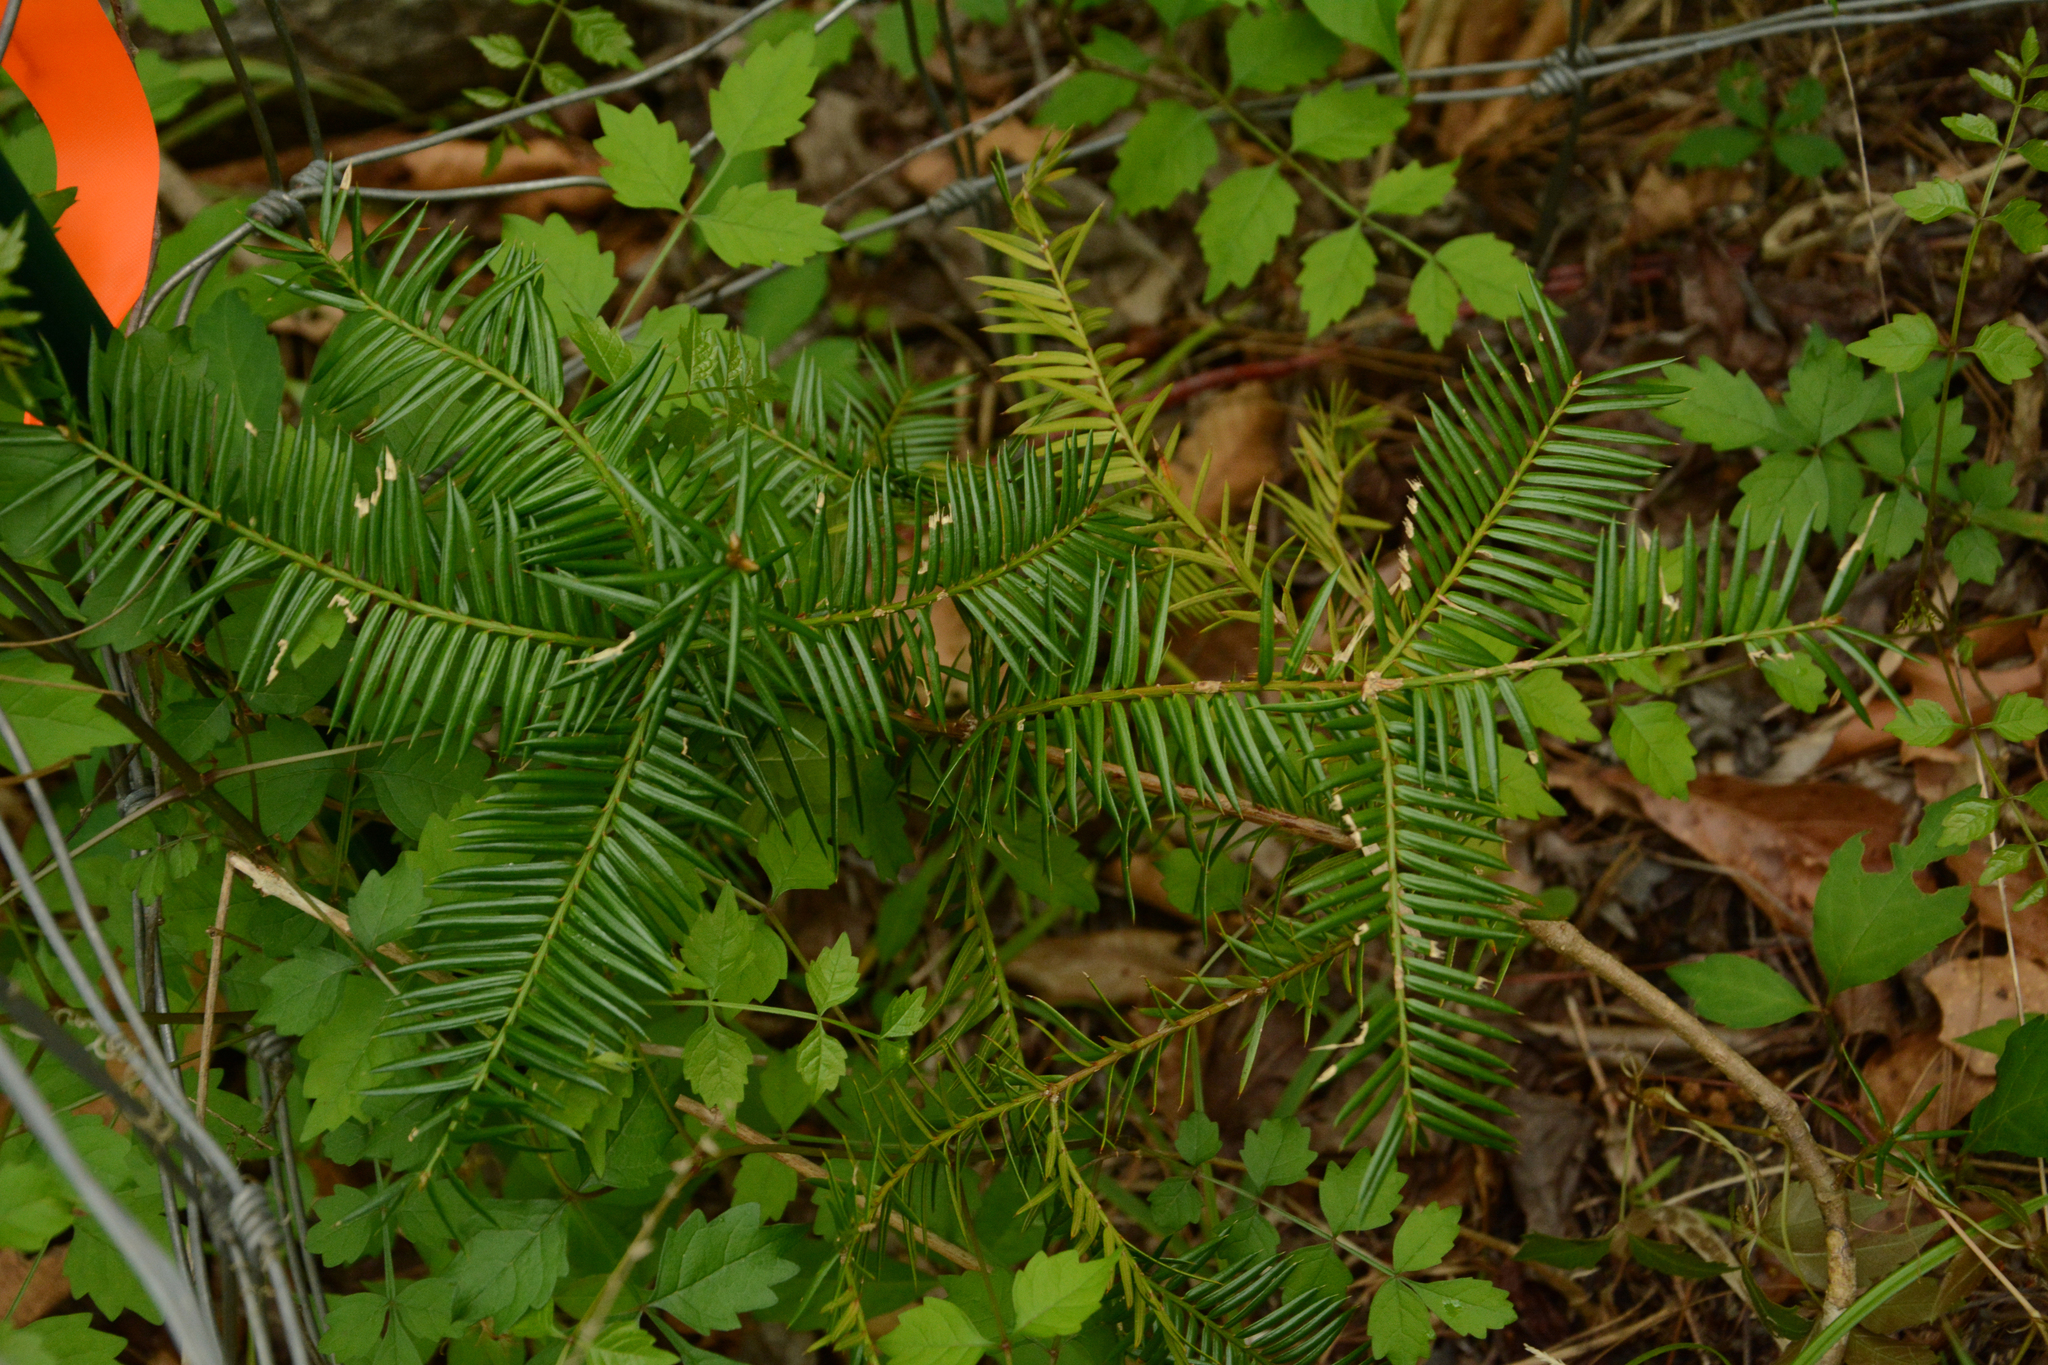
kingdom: Plantae
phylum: Tracheophyta
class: Pinopsida
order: Pinales
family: Taxaceae
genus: Torreya
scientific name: Torreya taxifolia
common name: Florida torreya
